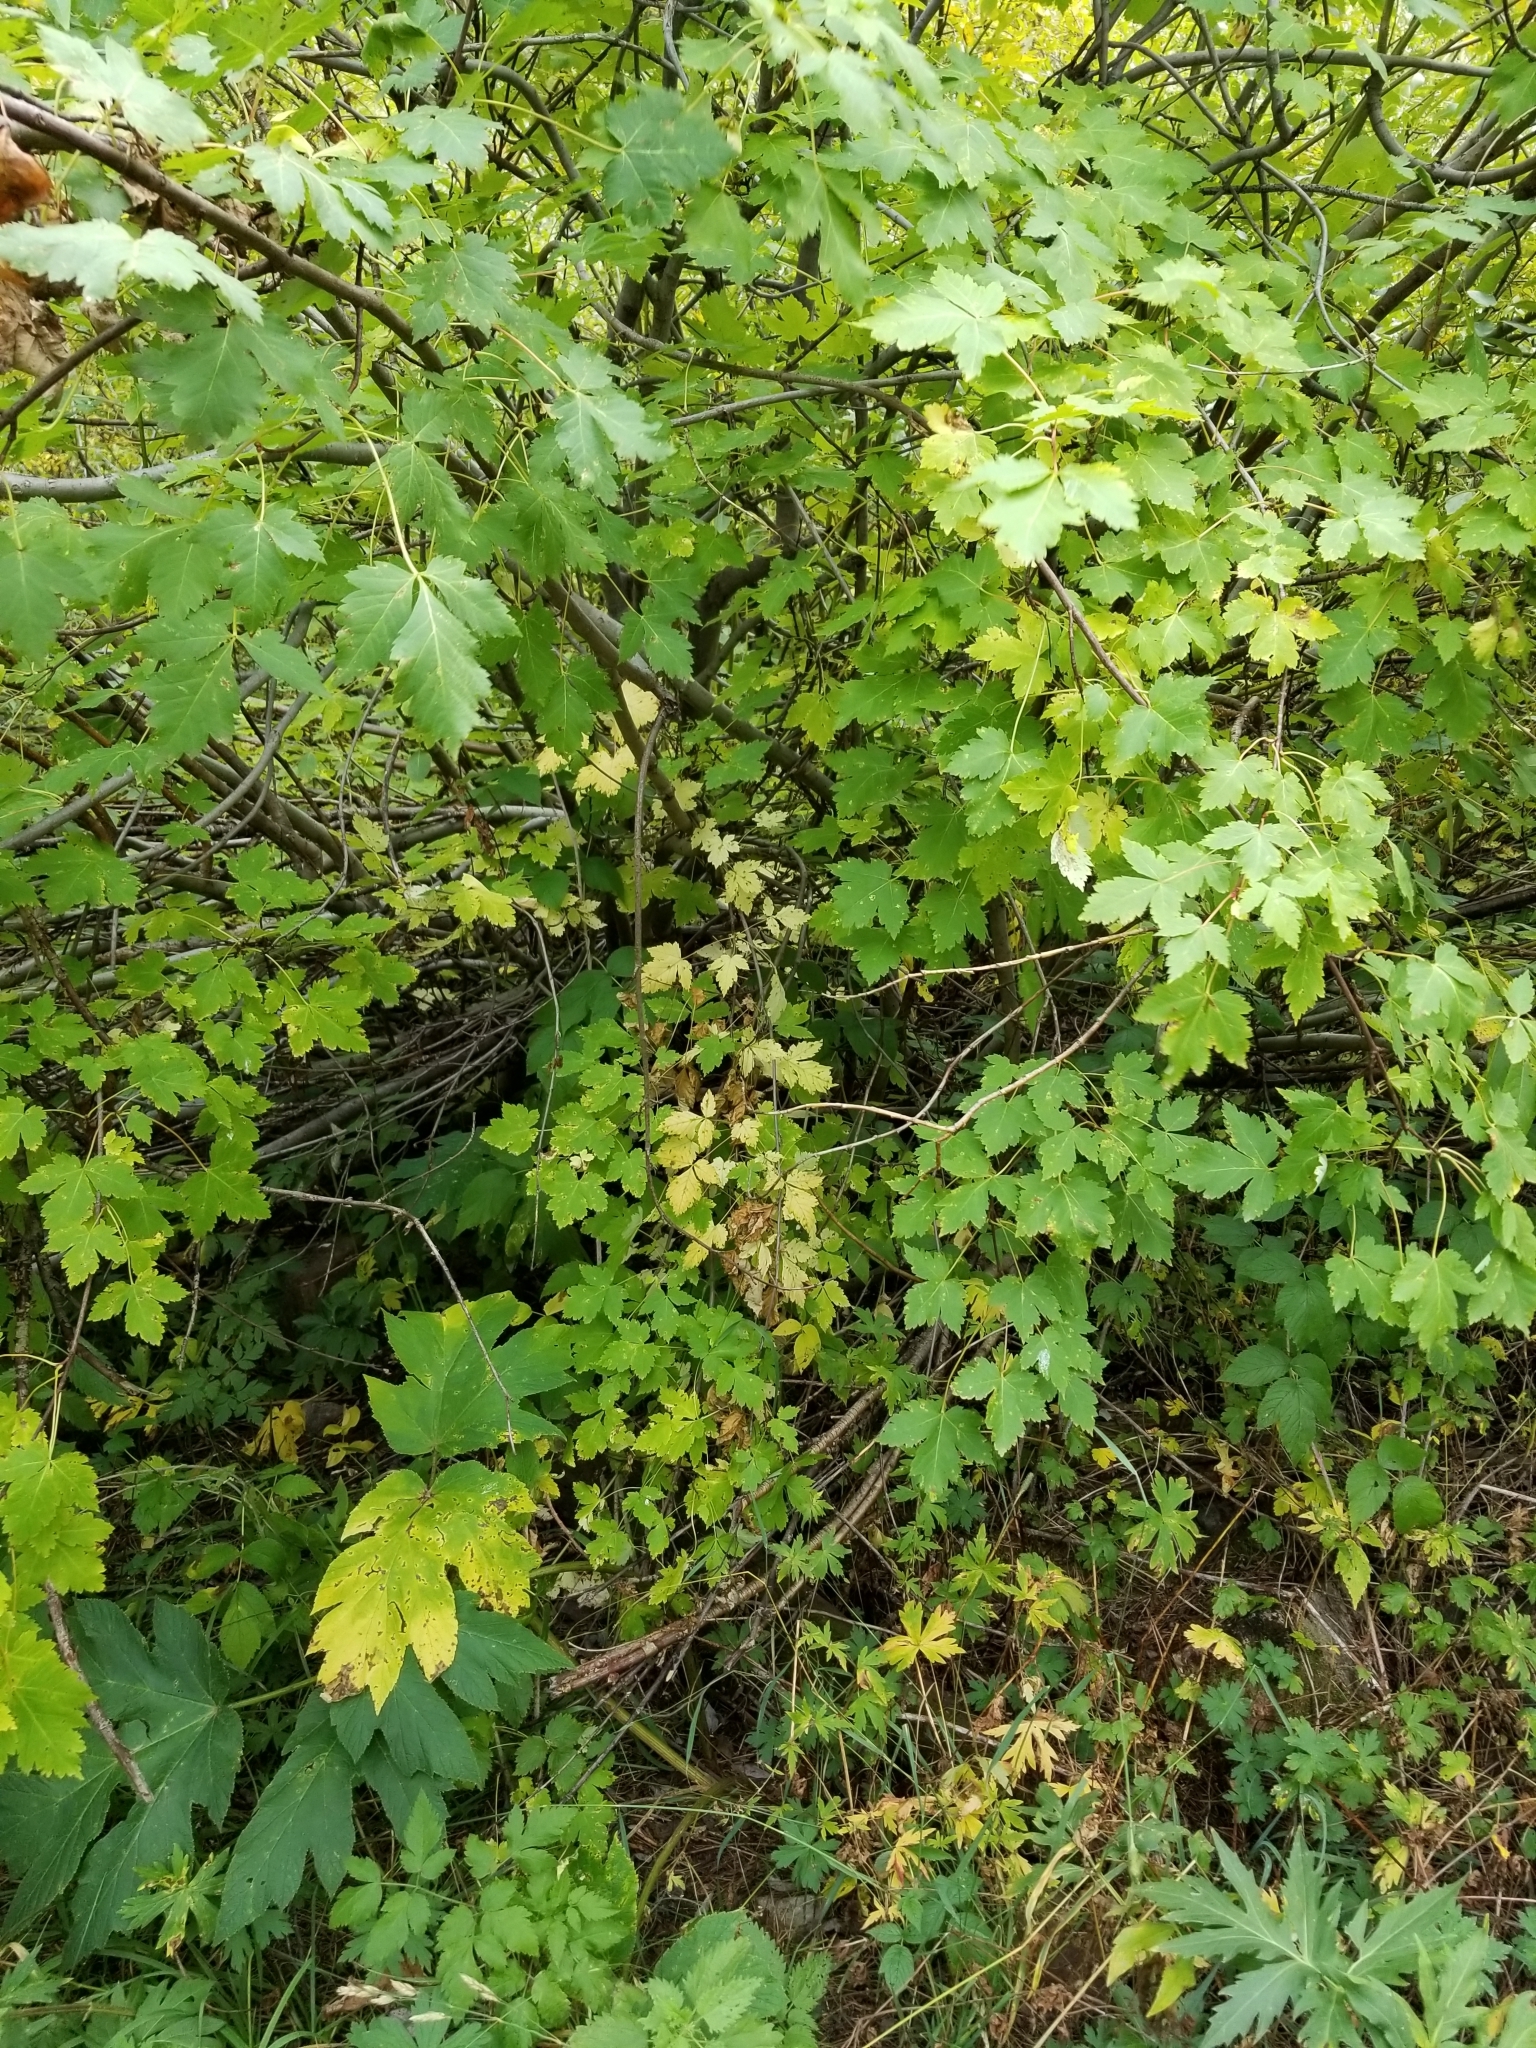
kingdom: Plantae
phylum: Tracheophyta
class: Magnoliopsida
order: Sapindales
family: Sapindaceae
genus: Acer
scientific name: Acer glabrum
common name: Rocky mountain maple
